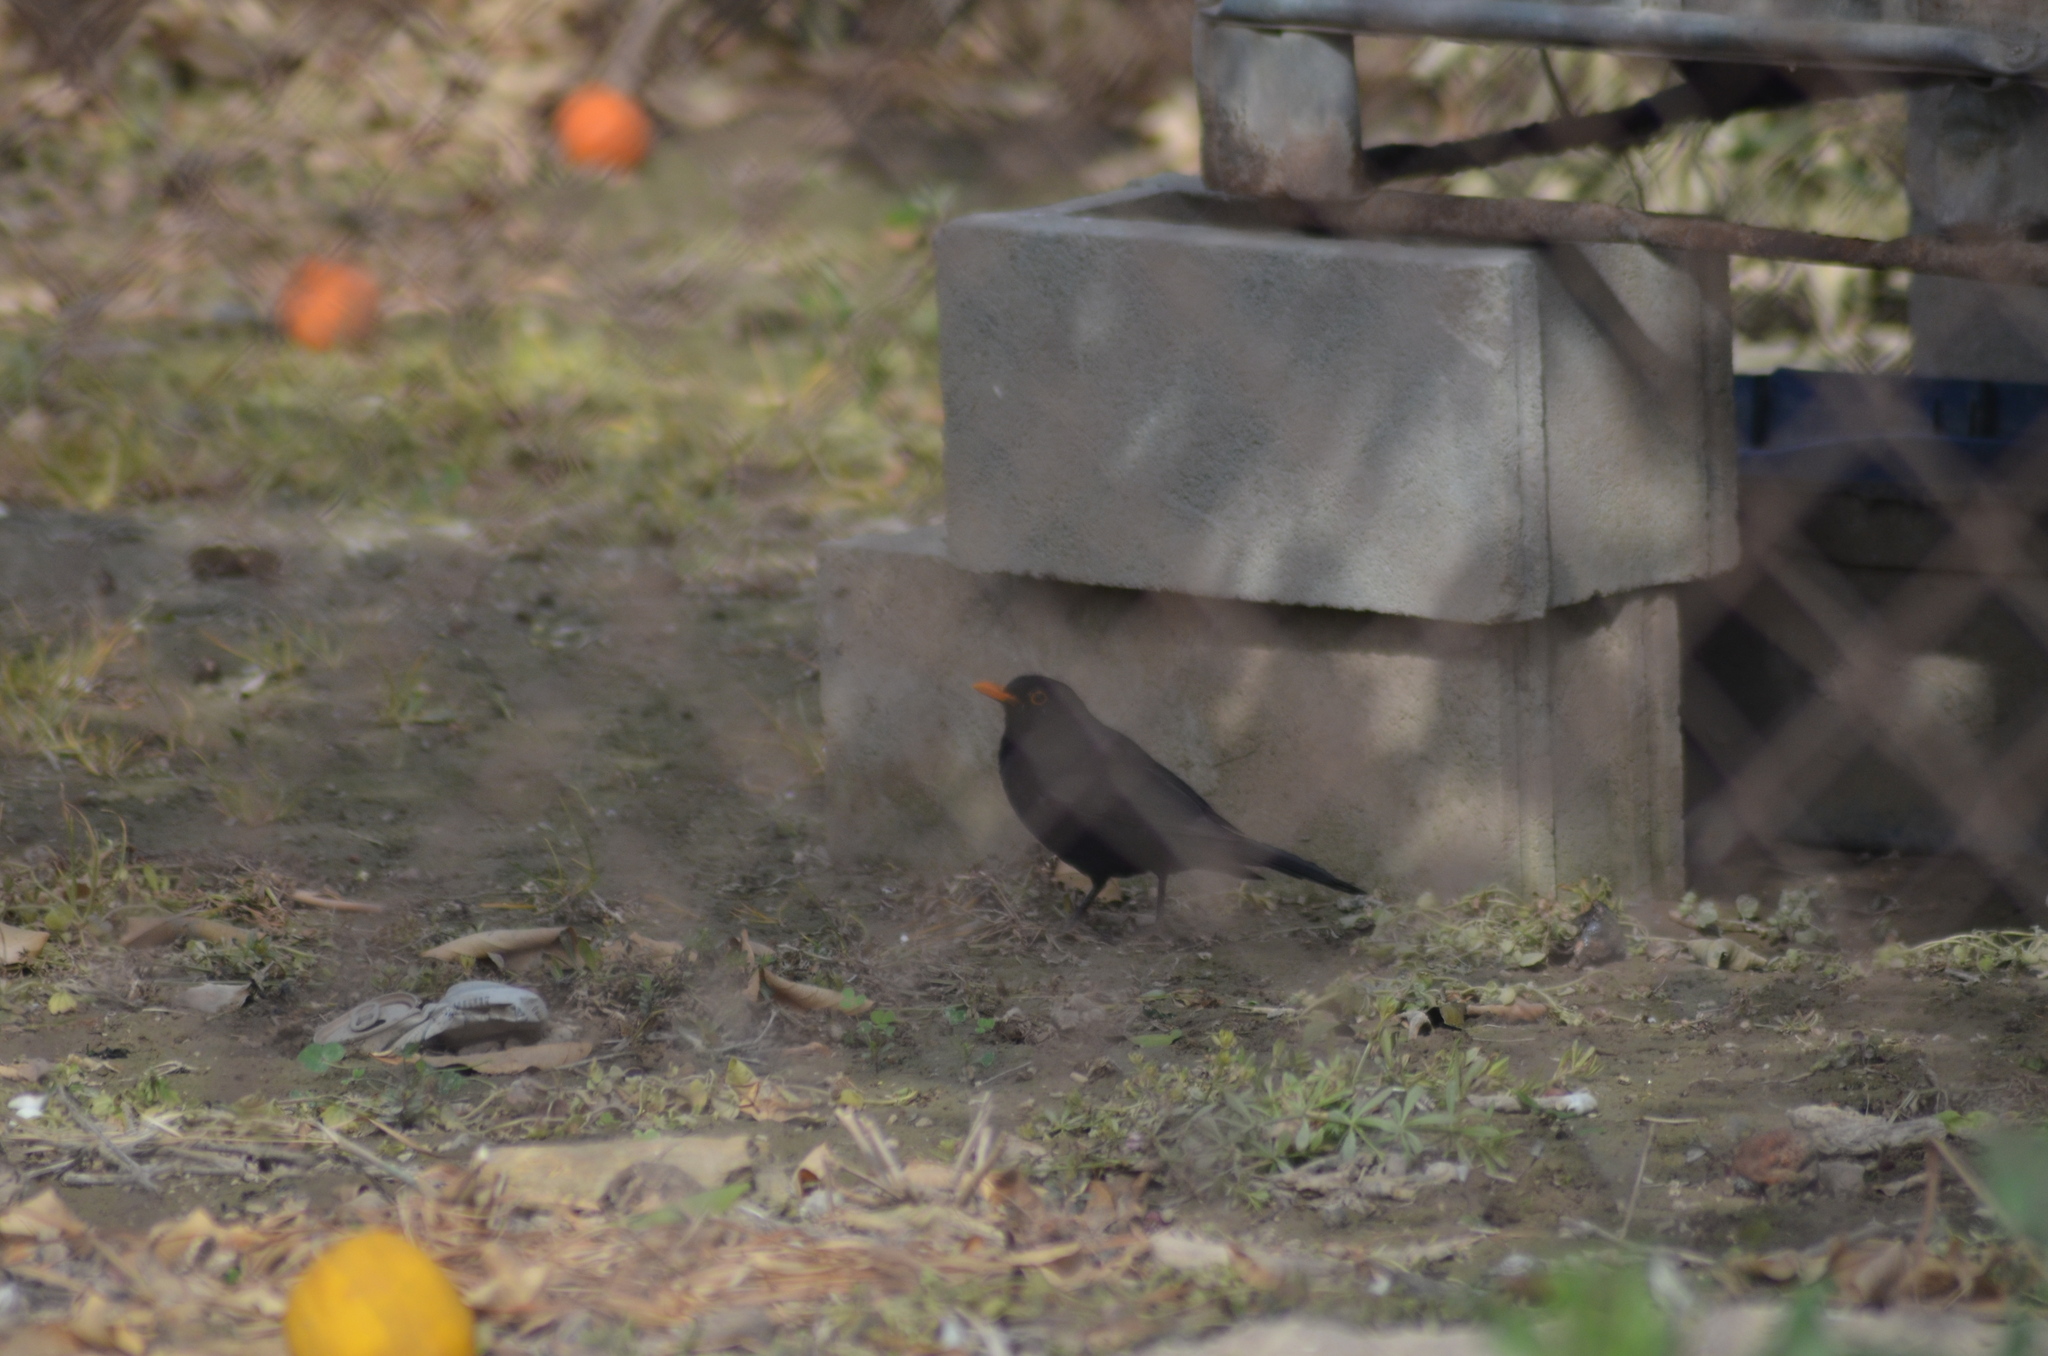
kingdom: Animalia
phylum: Chordata
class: Aves
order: Passeriformes
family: Turdidae
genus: Turdus
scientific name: Turdus merula
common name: Common blackbird
